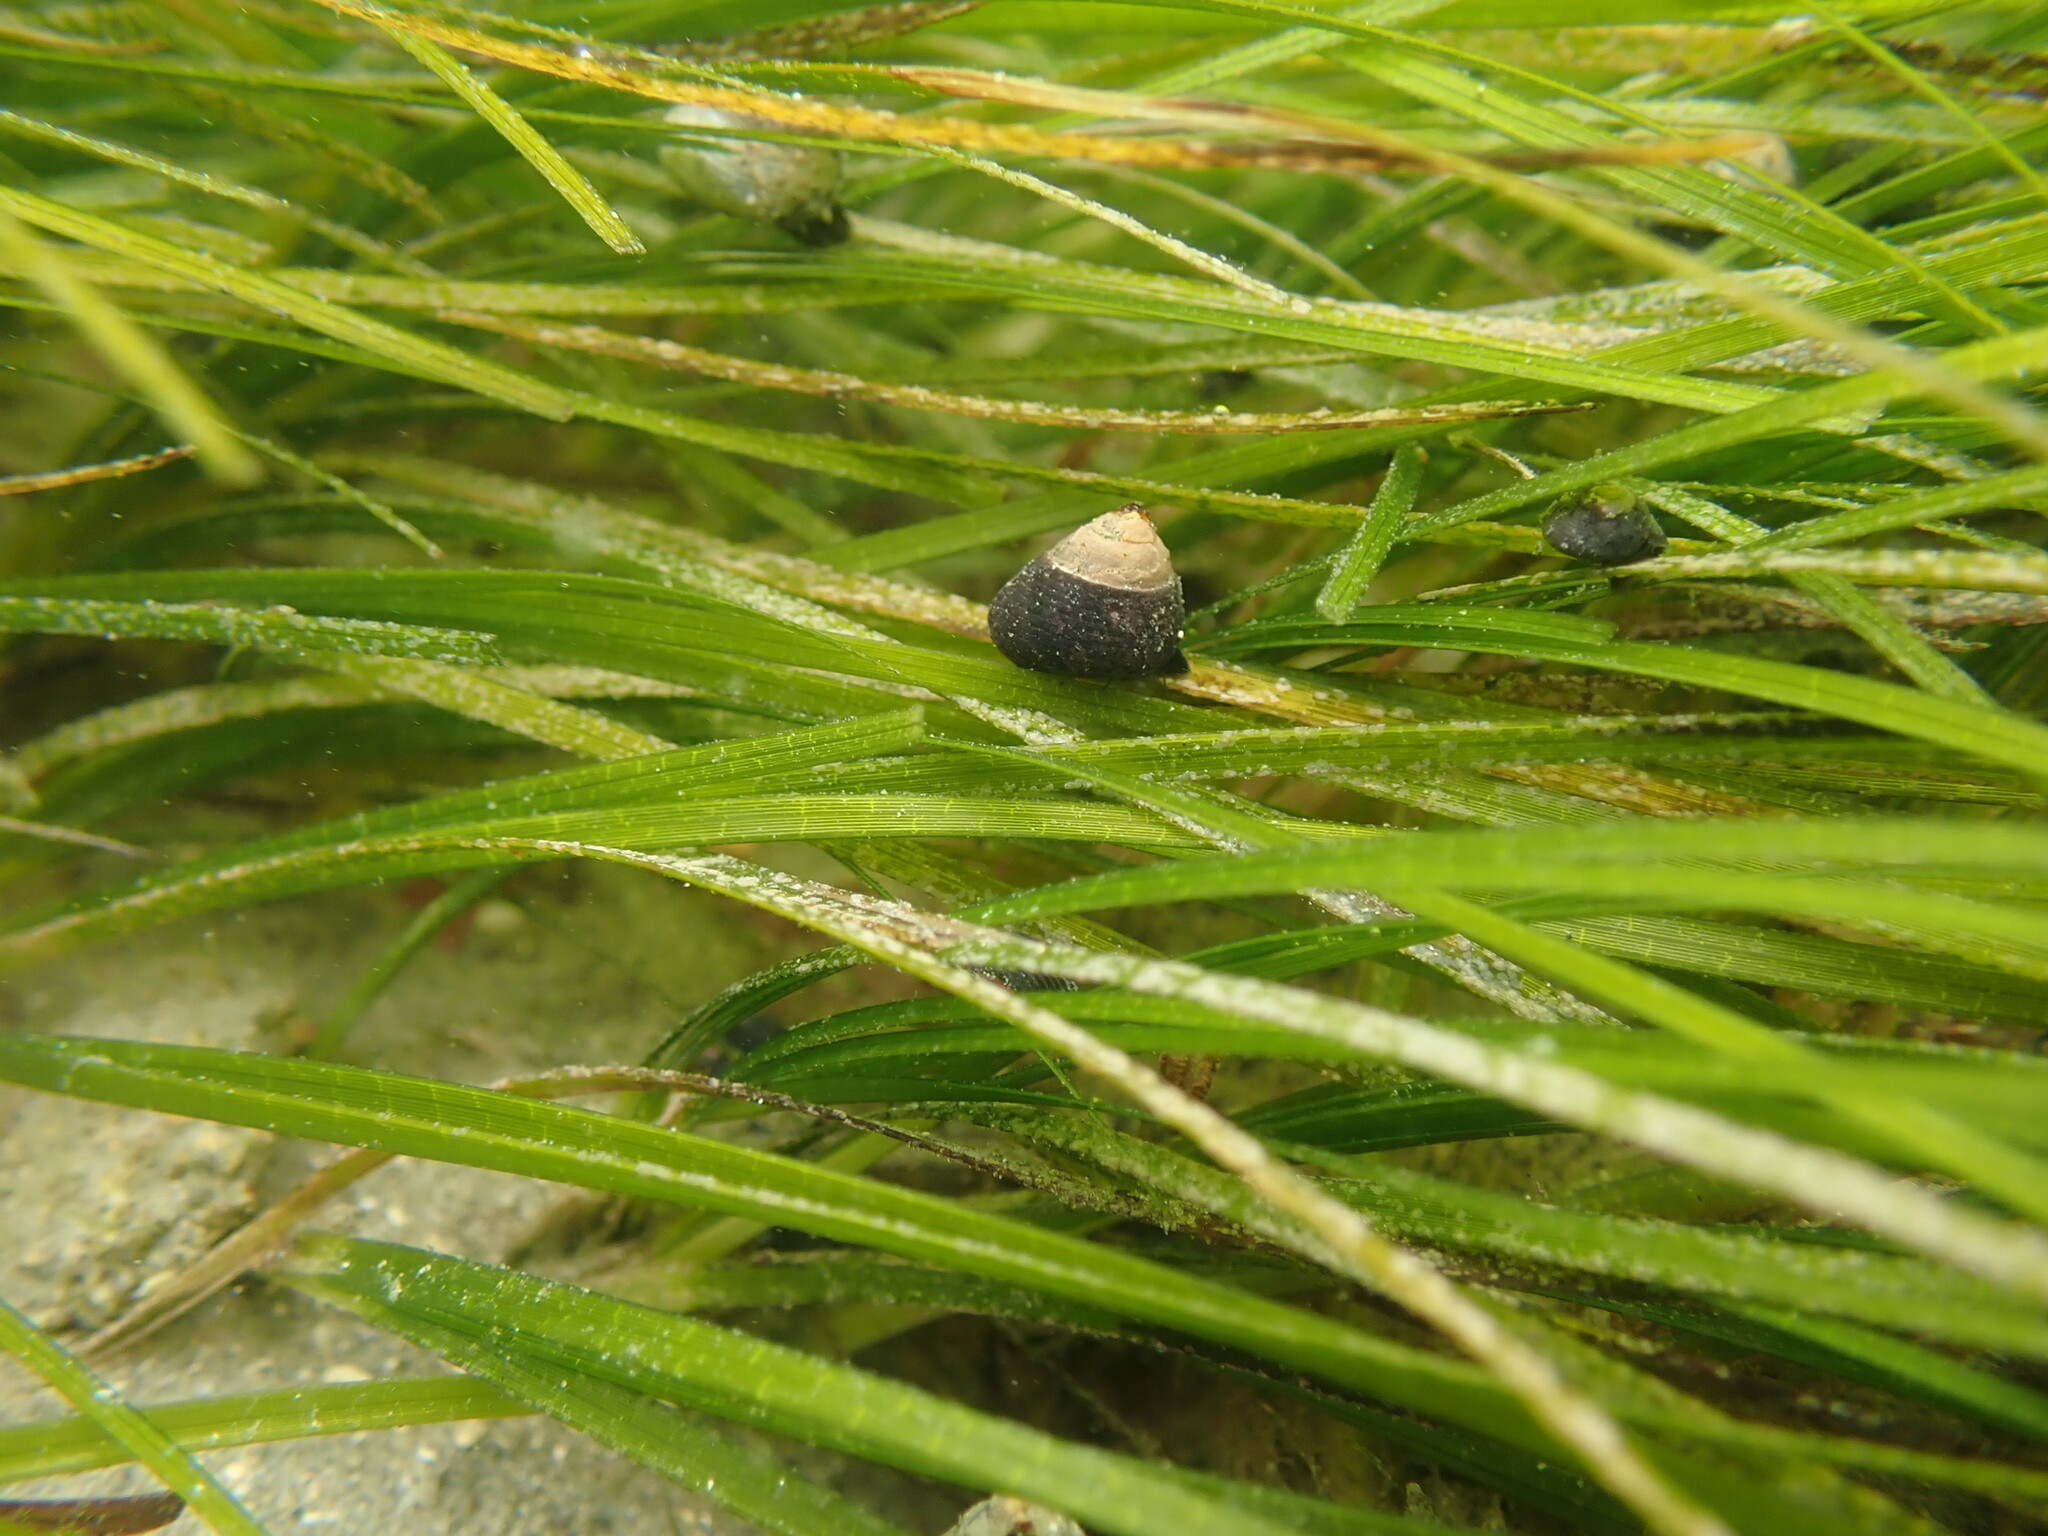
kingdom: Animalia
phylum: Mollusca
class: Gastropoda
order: Trochida
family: Trochidae
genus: Micrelenchus
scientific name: Micrelenchus huttonii
